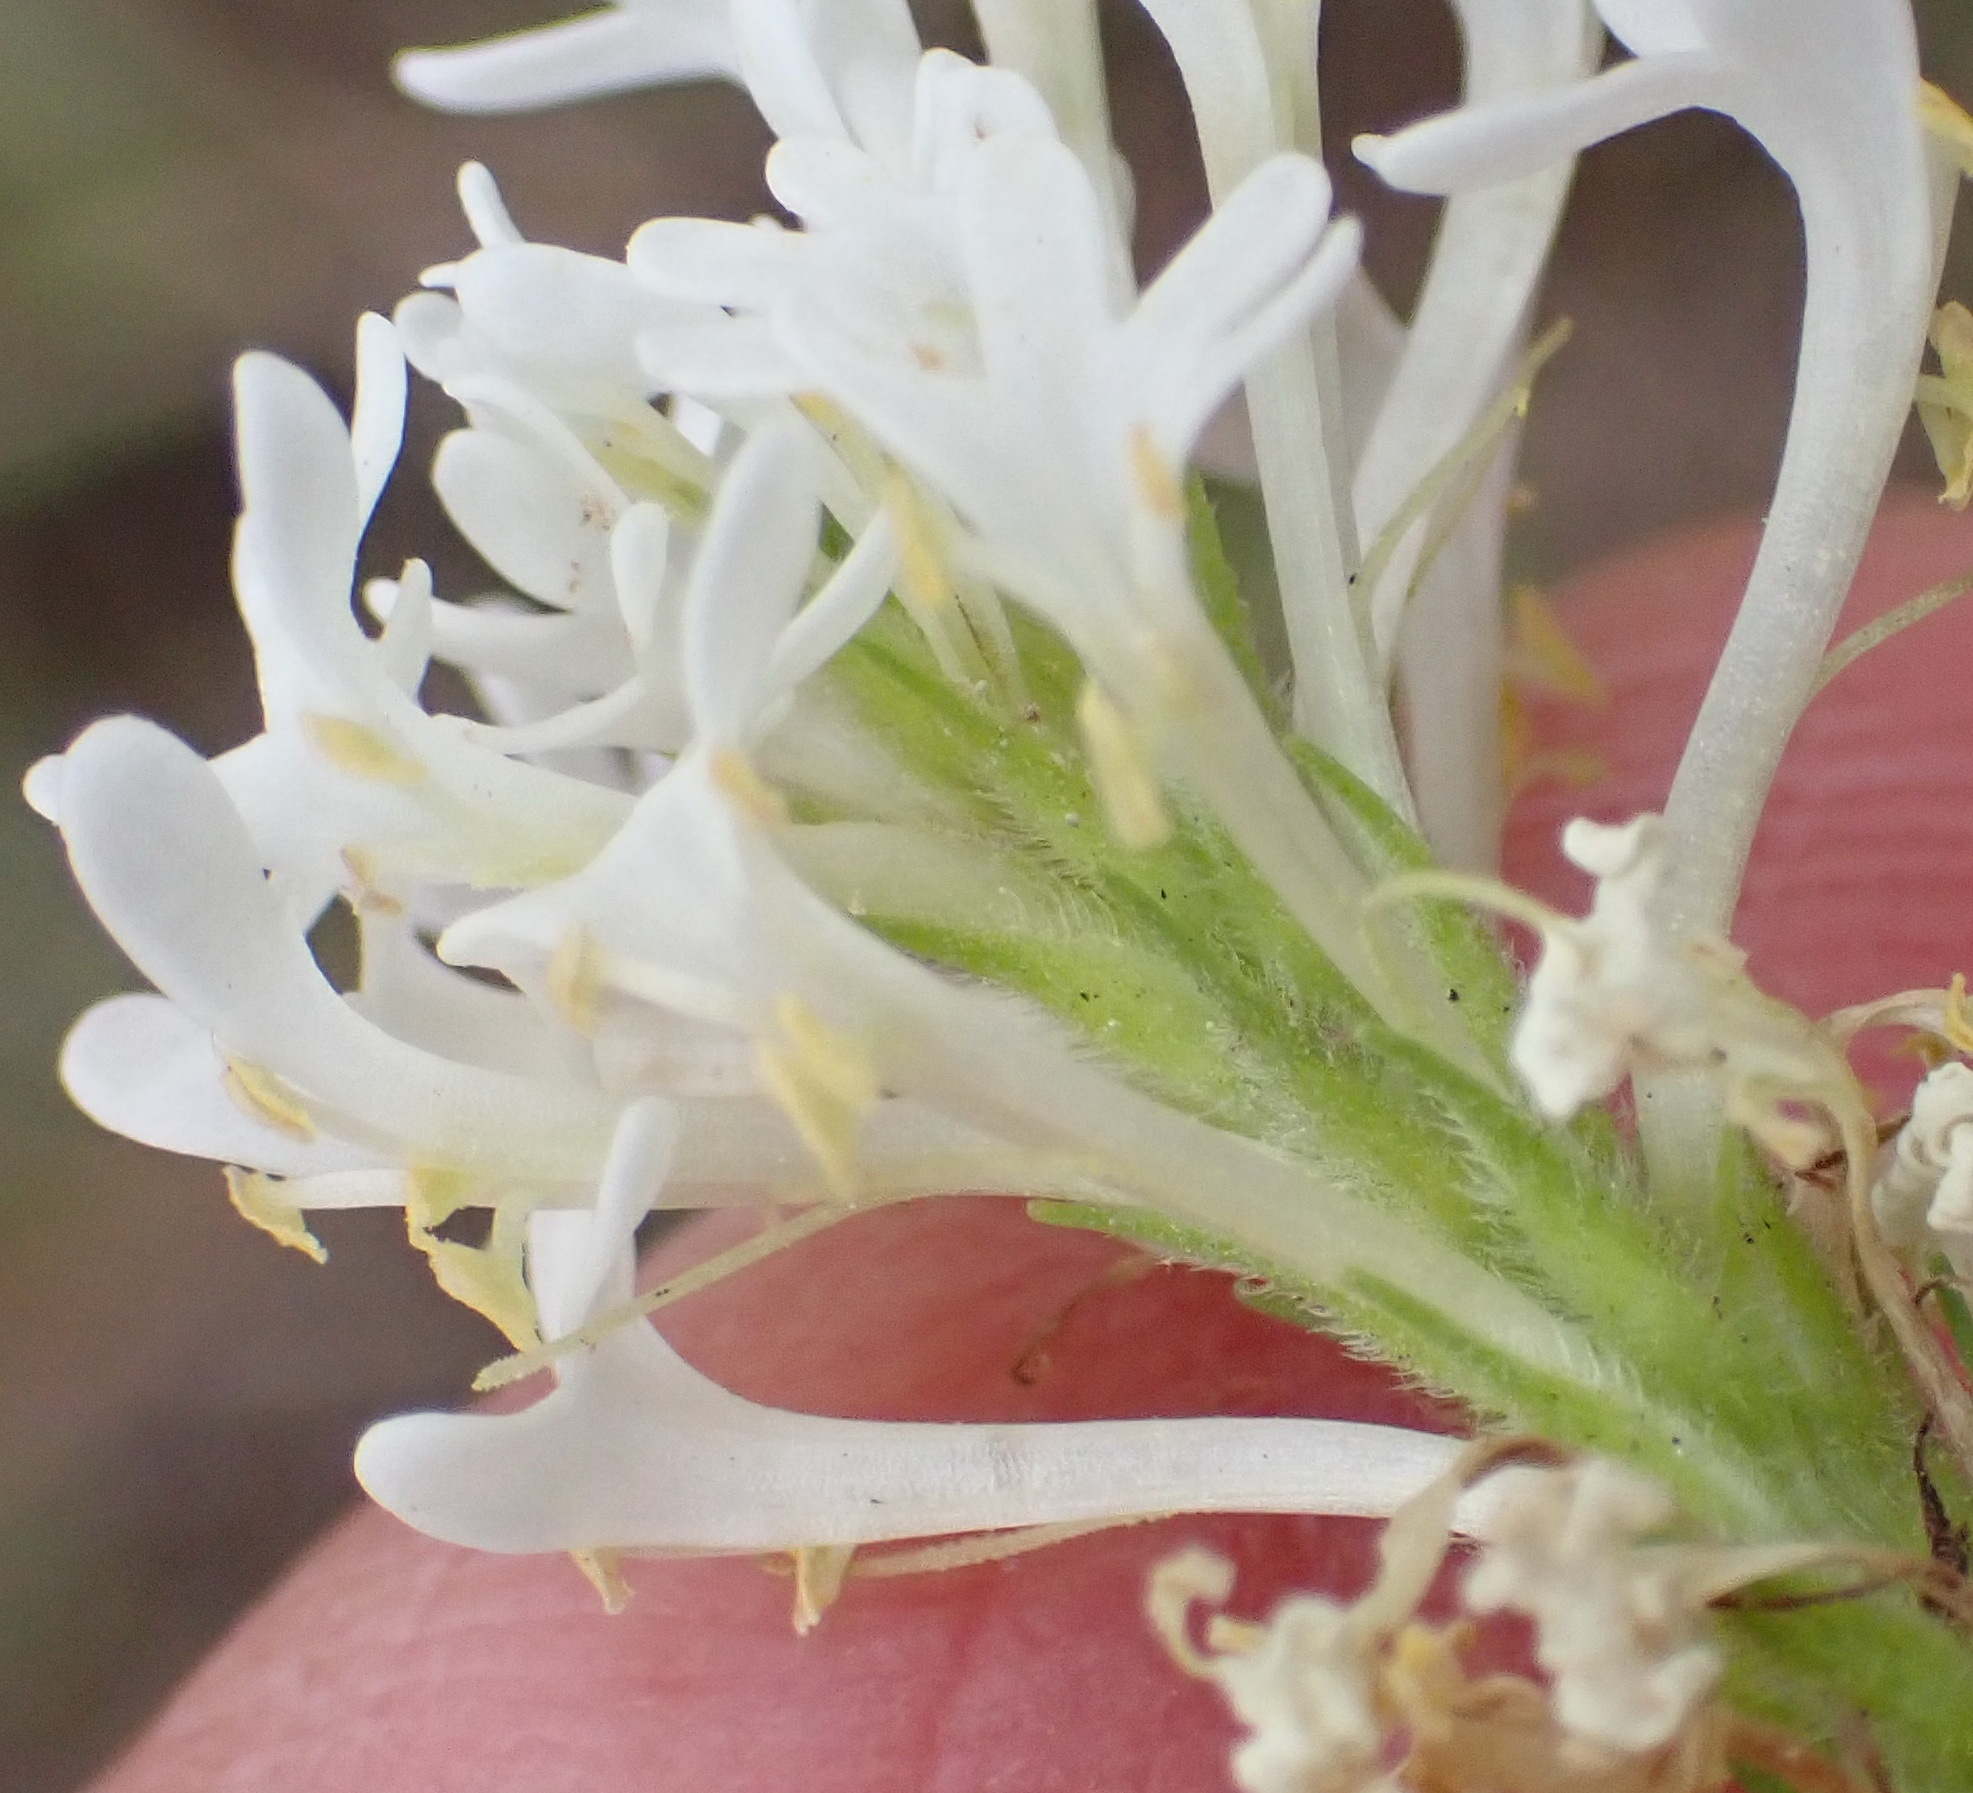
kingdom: Plantae
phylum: Tracheophyta
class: Magnoliopsida
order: Lamiales
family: Scrophulariaceae
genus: Dischisma
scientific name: Dischisma ciliatum
